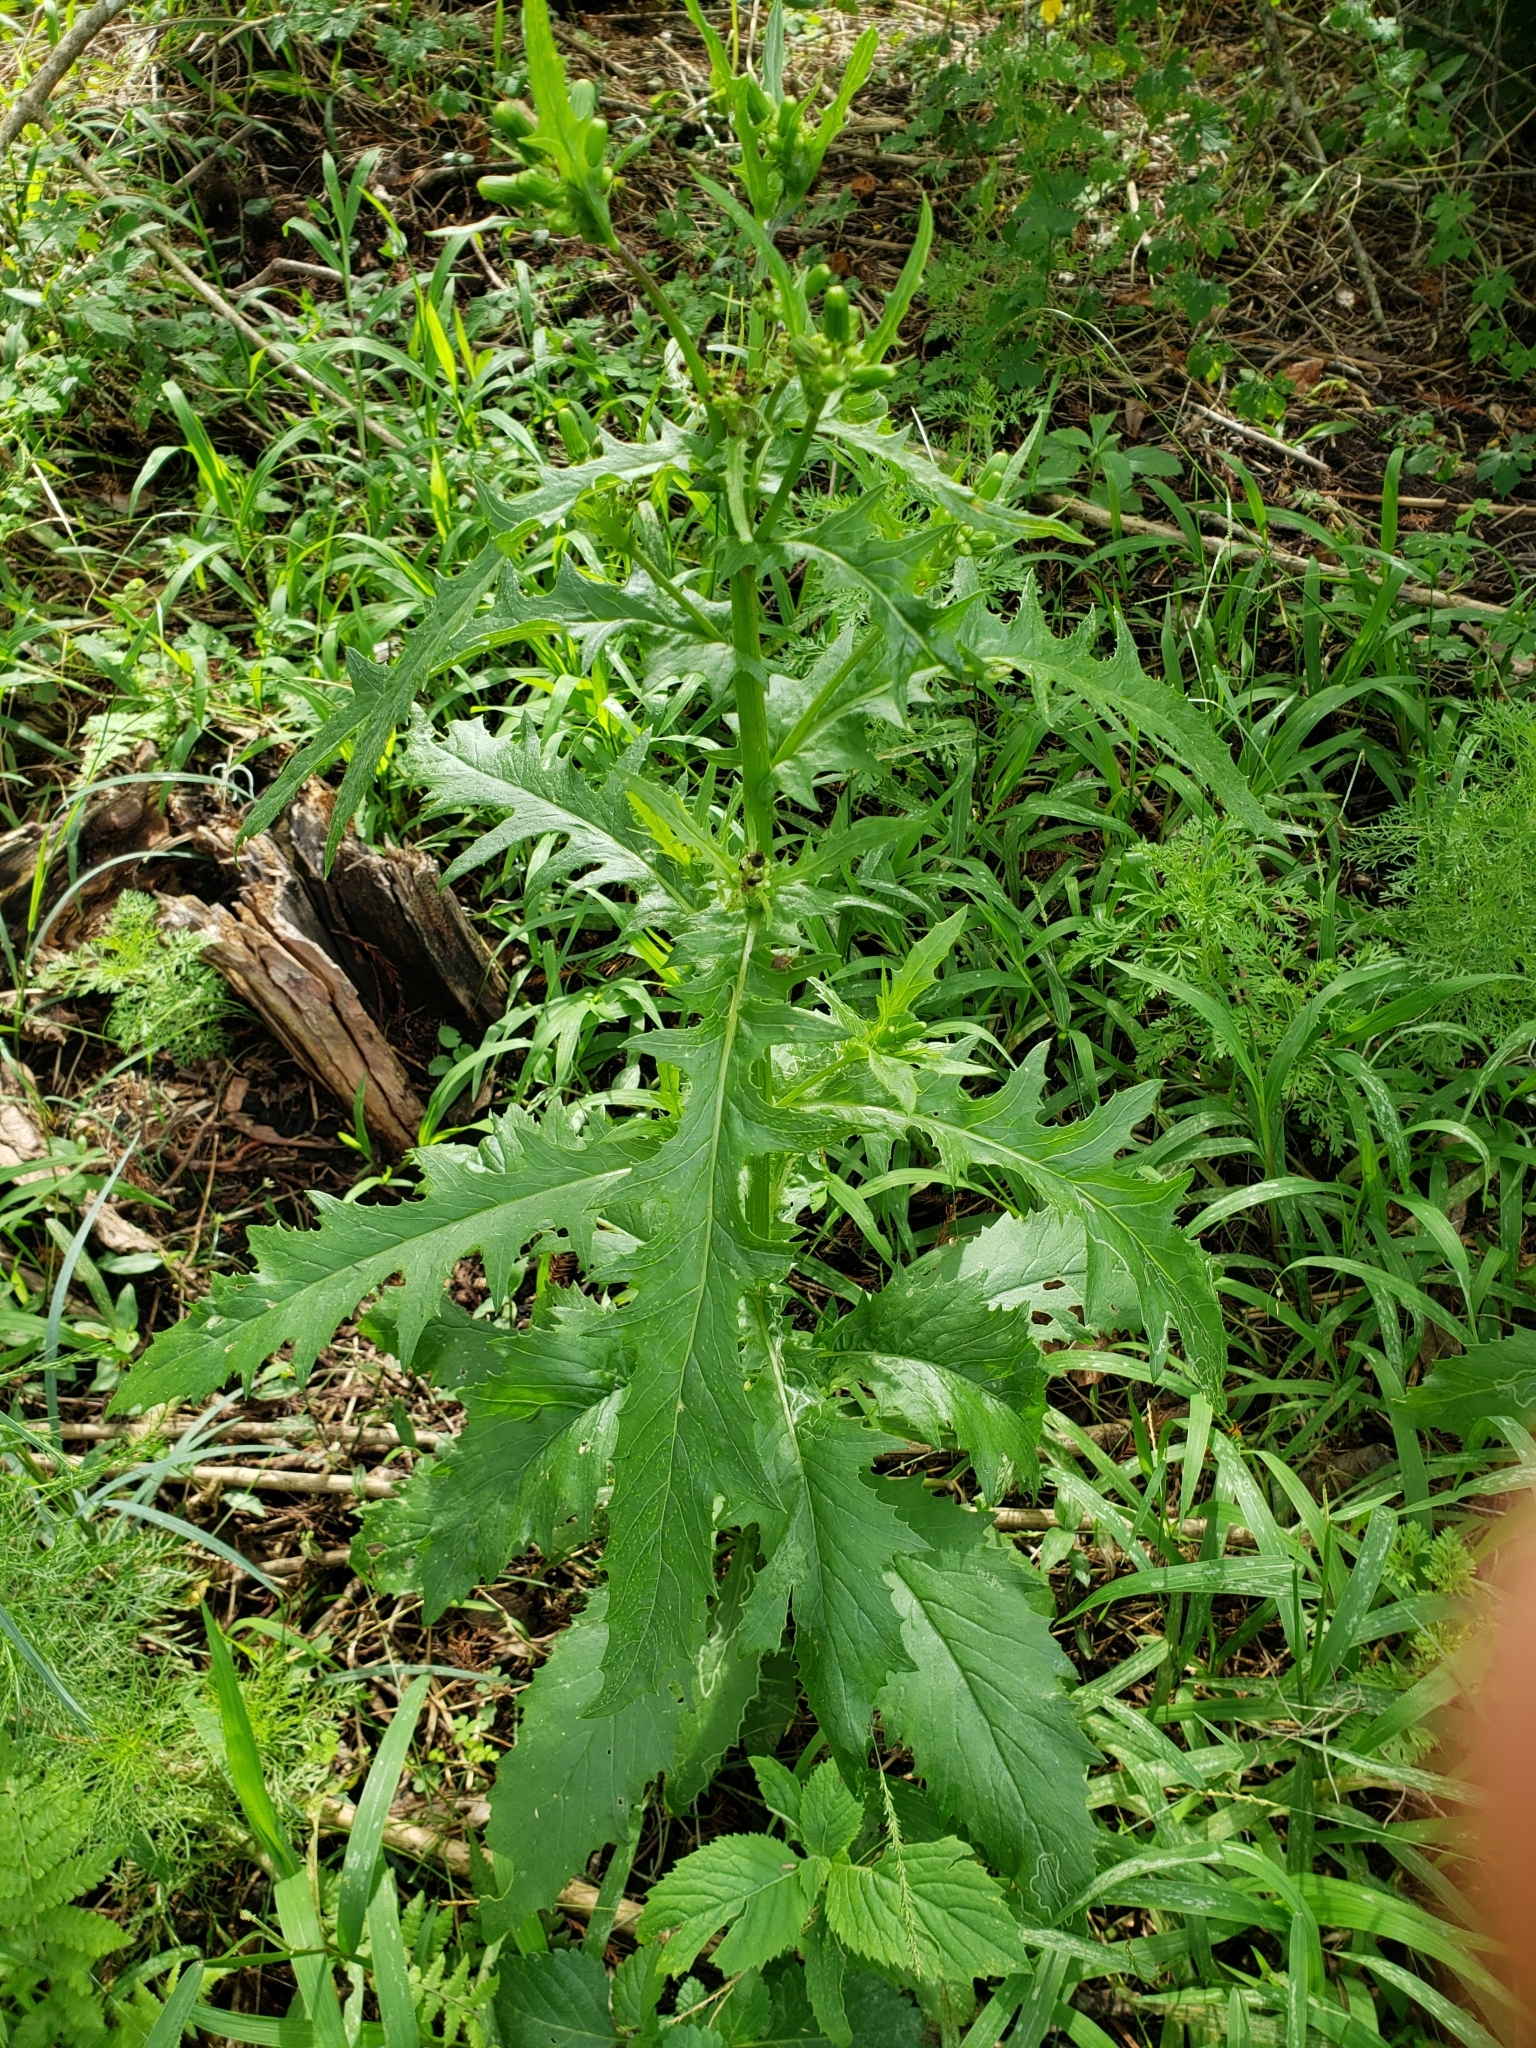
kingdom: Plantae
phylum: Tracheophyta
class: Magnoliopsida
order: Asterales
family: Asteraceae
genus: Erechtites
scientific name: Erechtites hieraciifolius
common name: American burnweed
